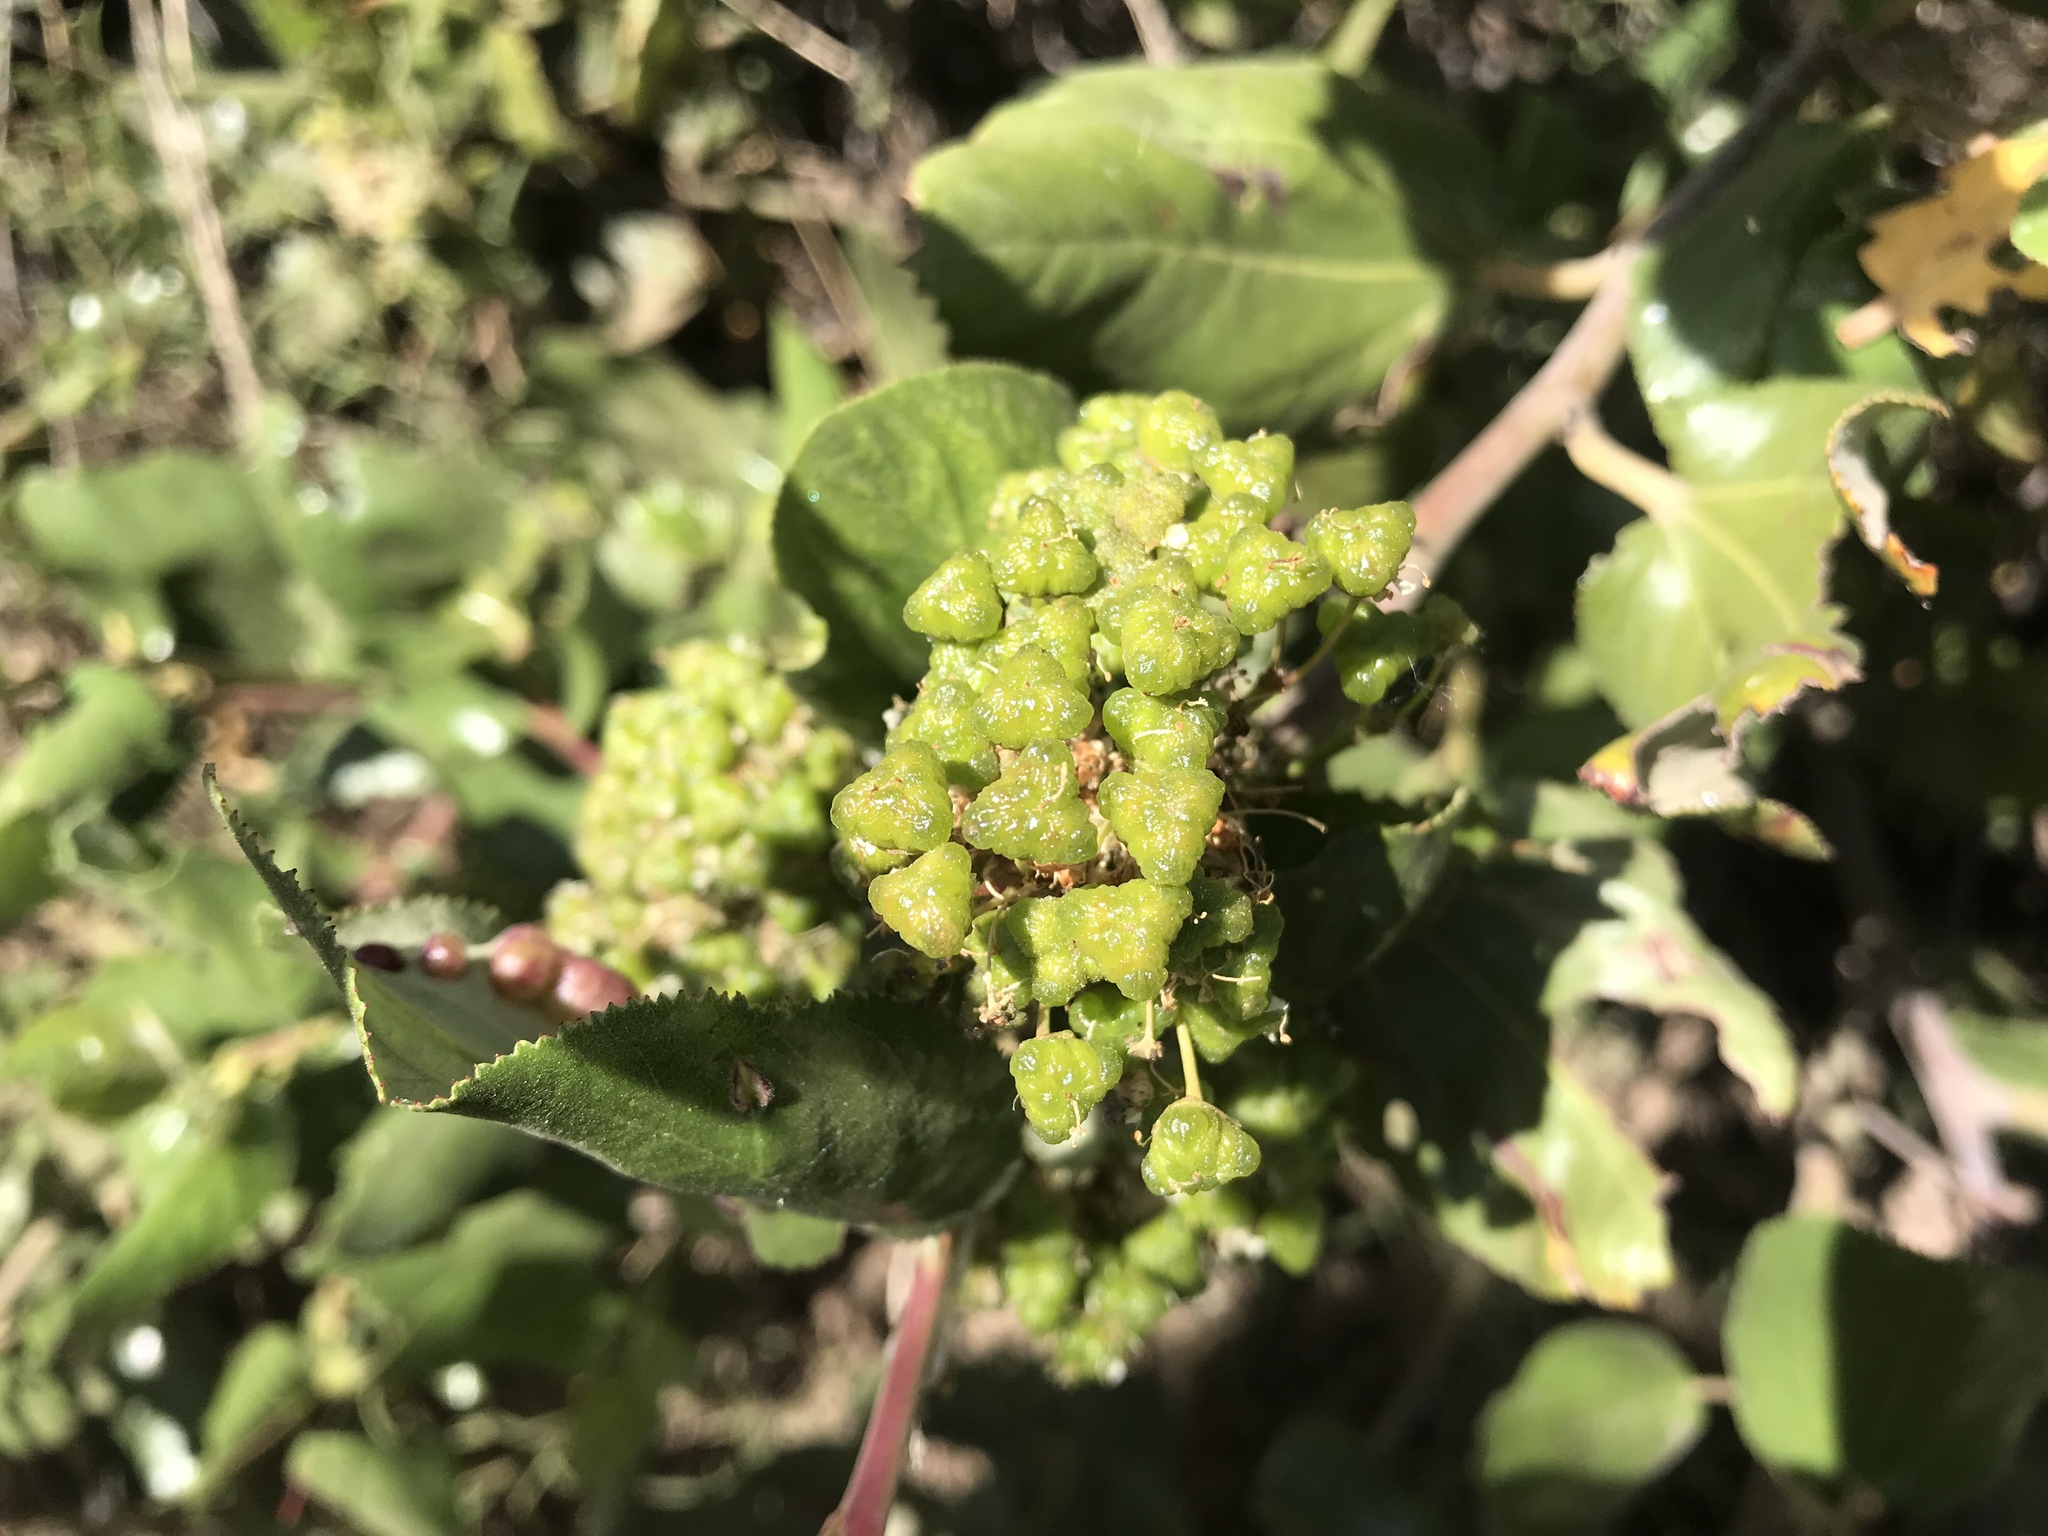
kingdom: Plantae
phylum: Tracheophyta
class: Magnoliopsida
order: Rosales
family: Rhamnaceae
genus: Ceanothus
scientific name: Ceanothus velutinus
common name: Snowbrush
